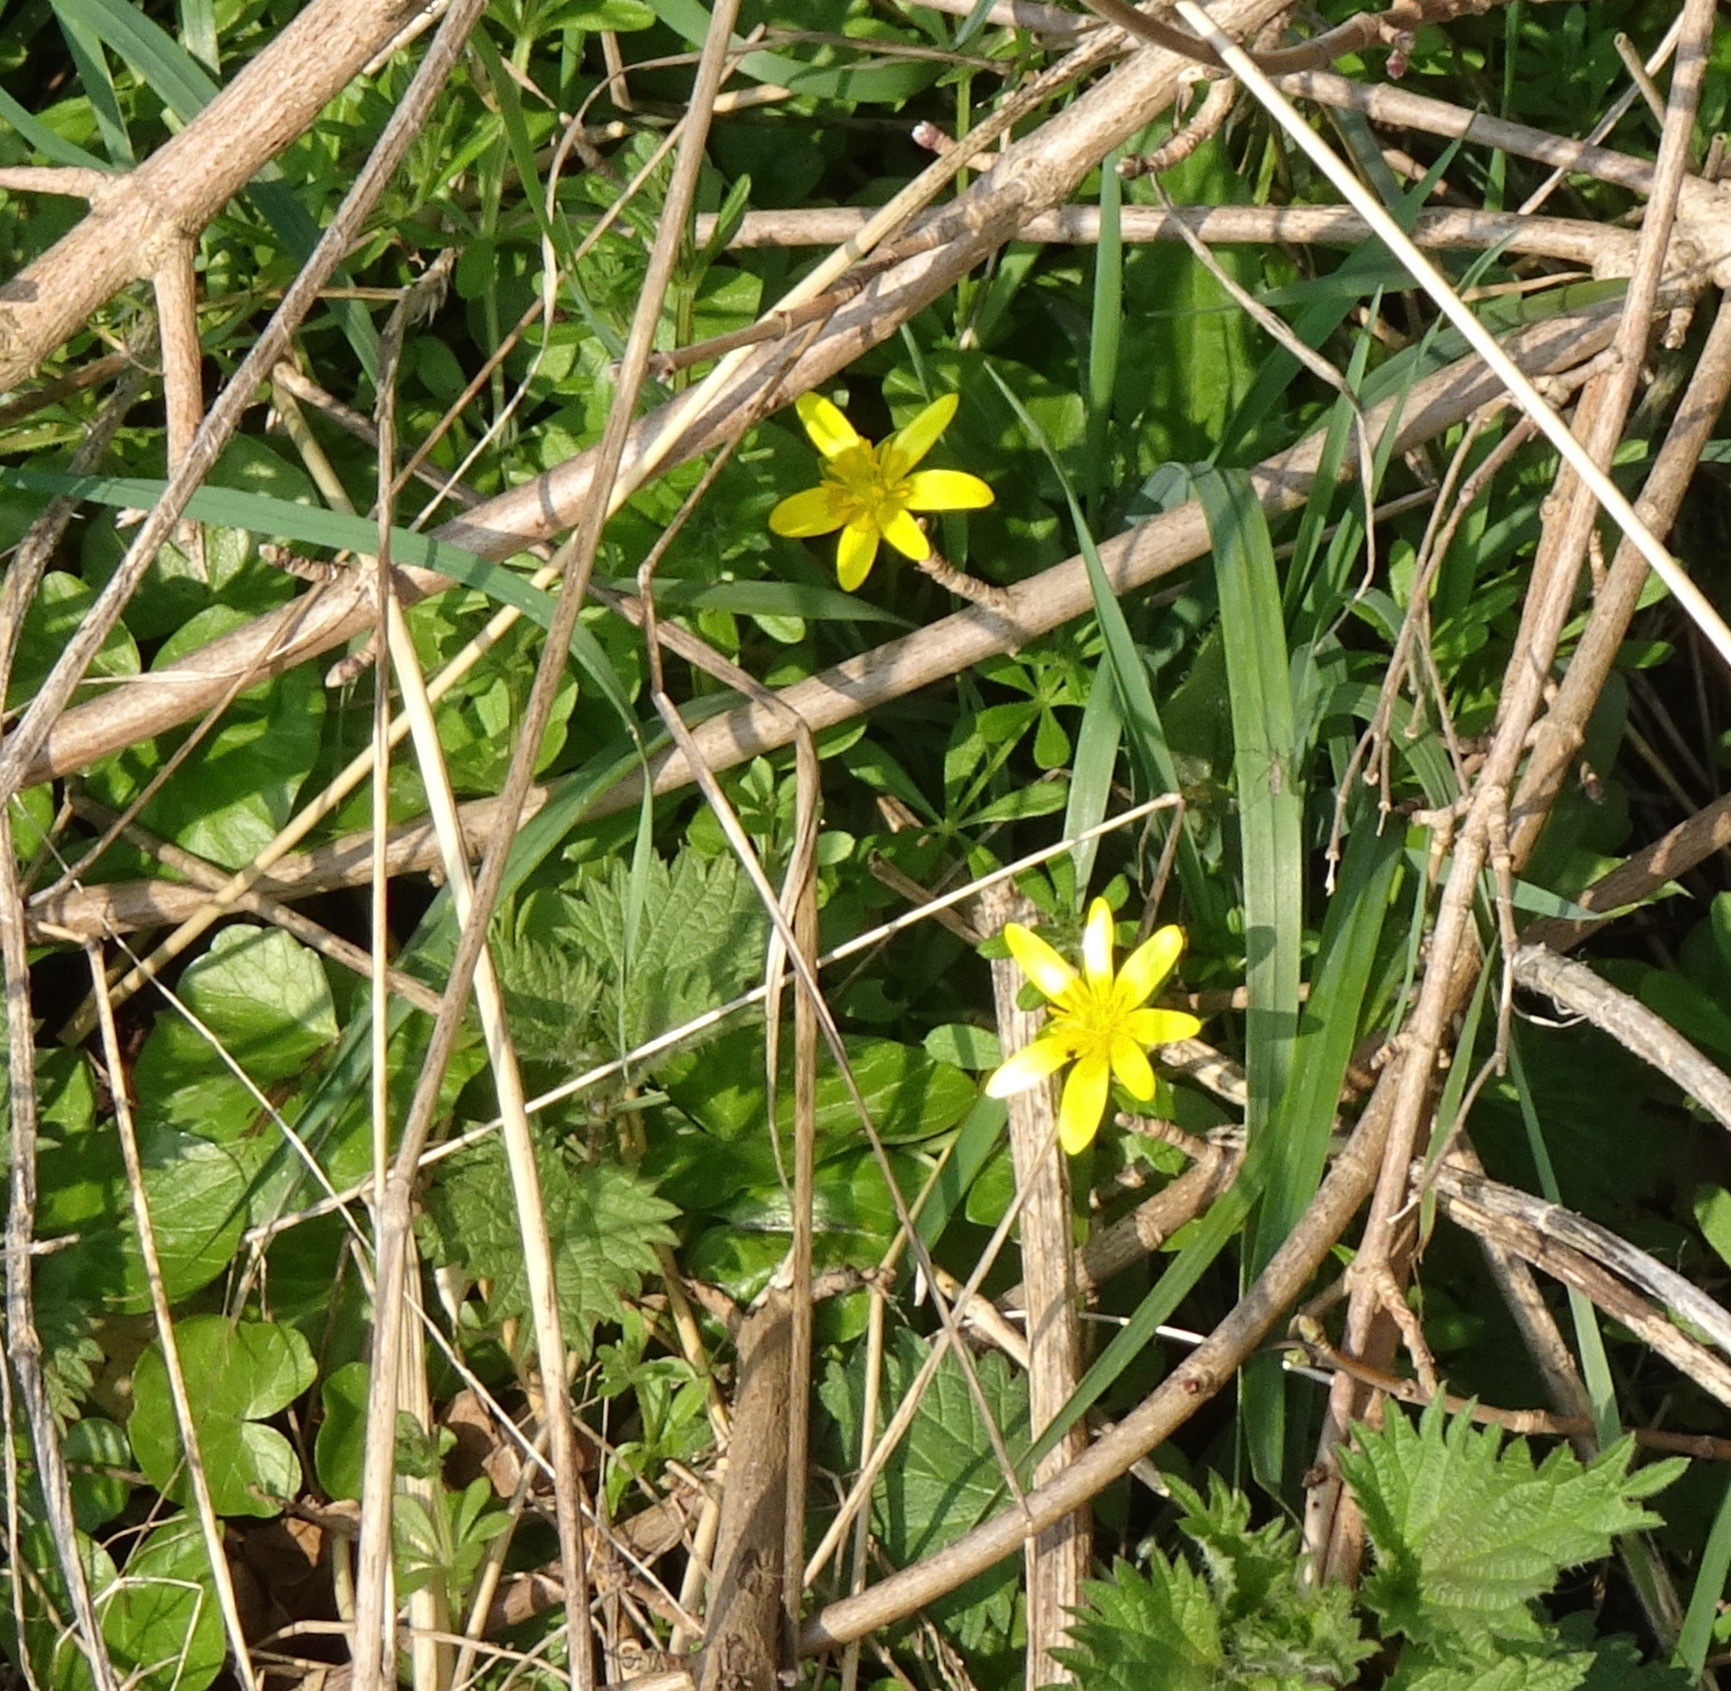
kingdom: Plantae
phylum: Tracheophyta
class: Magnoliopsida
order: Ranunculales
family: Ranunculaceae
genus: Ficaria
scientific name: Ficaria verna
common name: Lesser celandine
